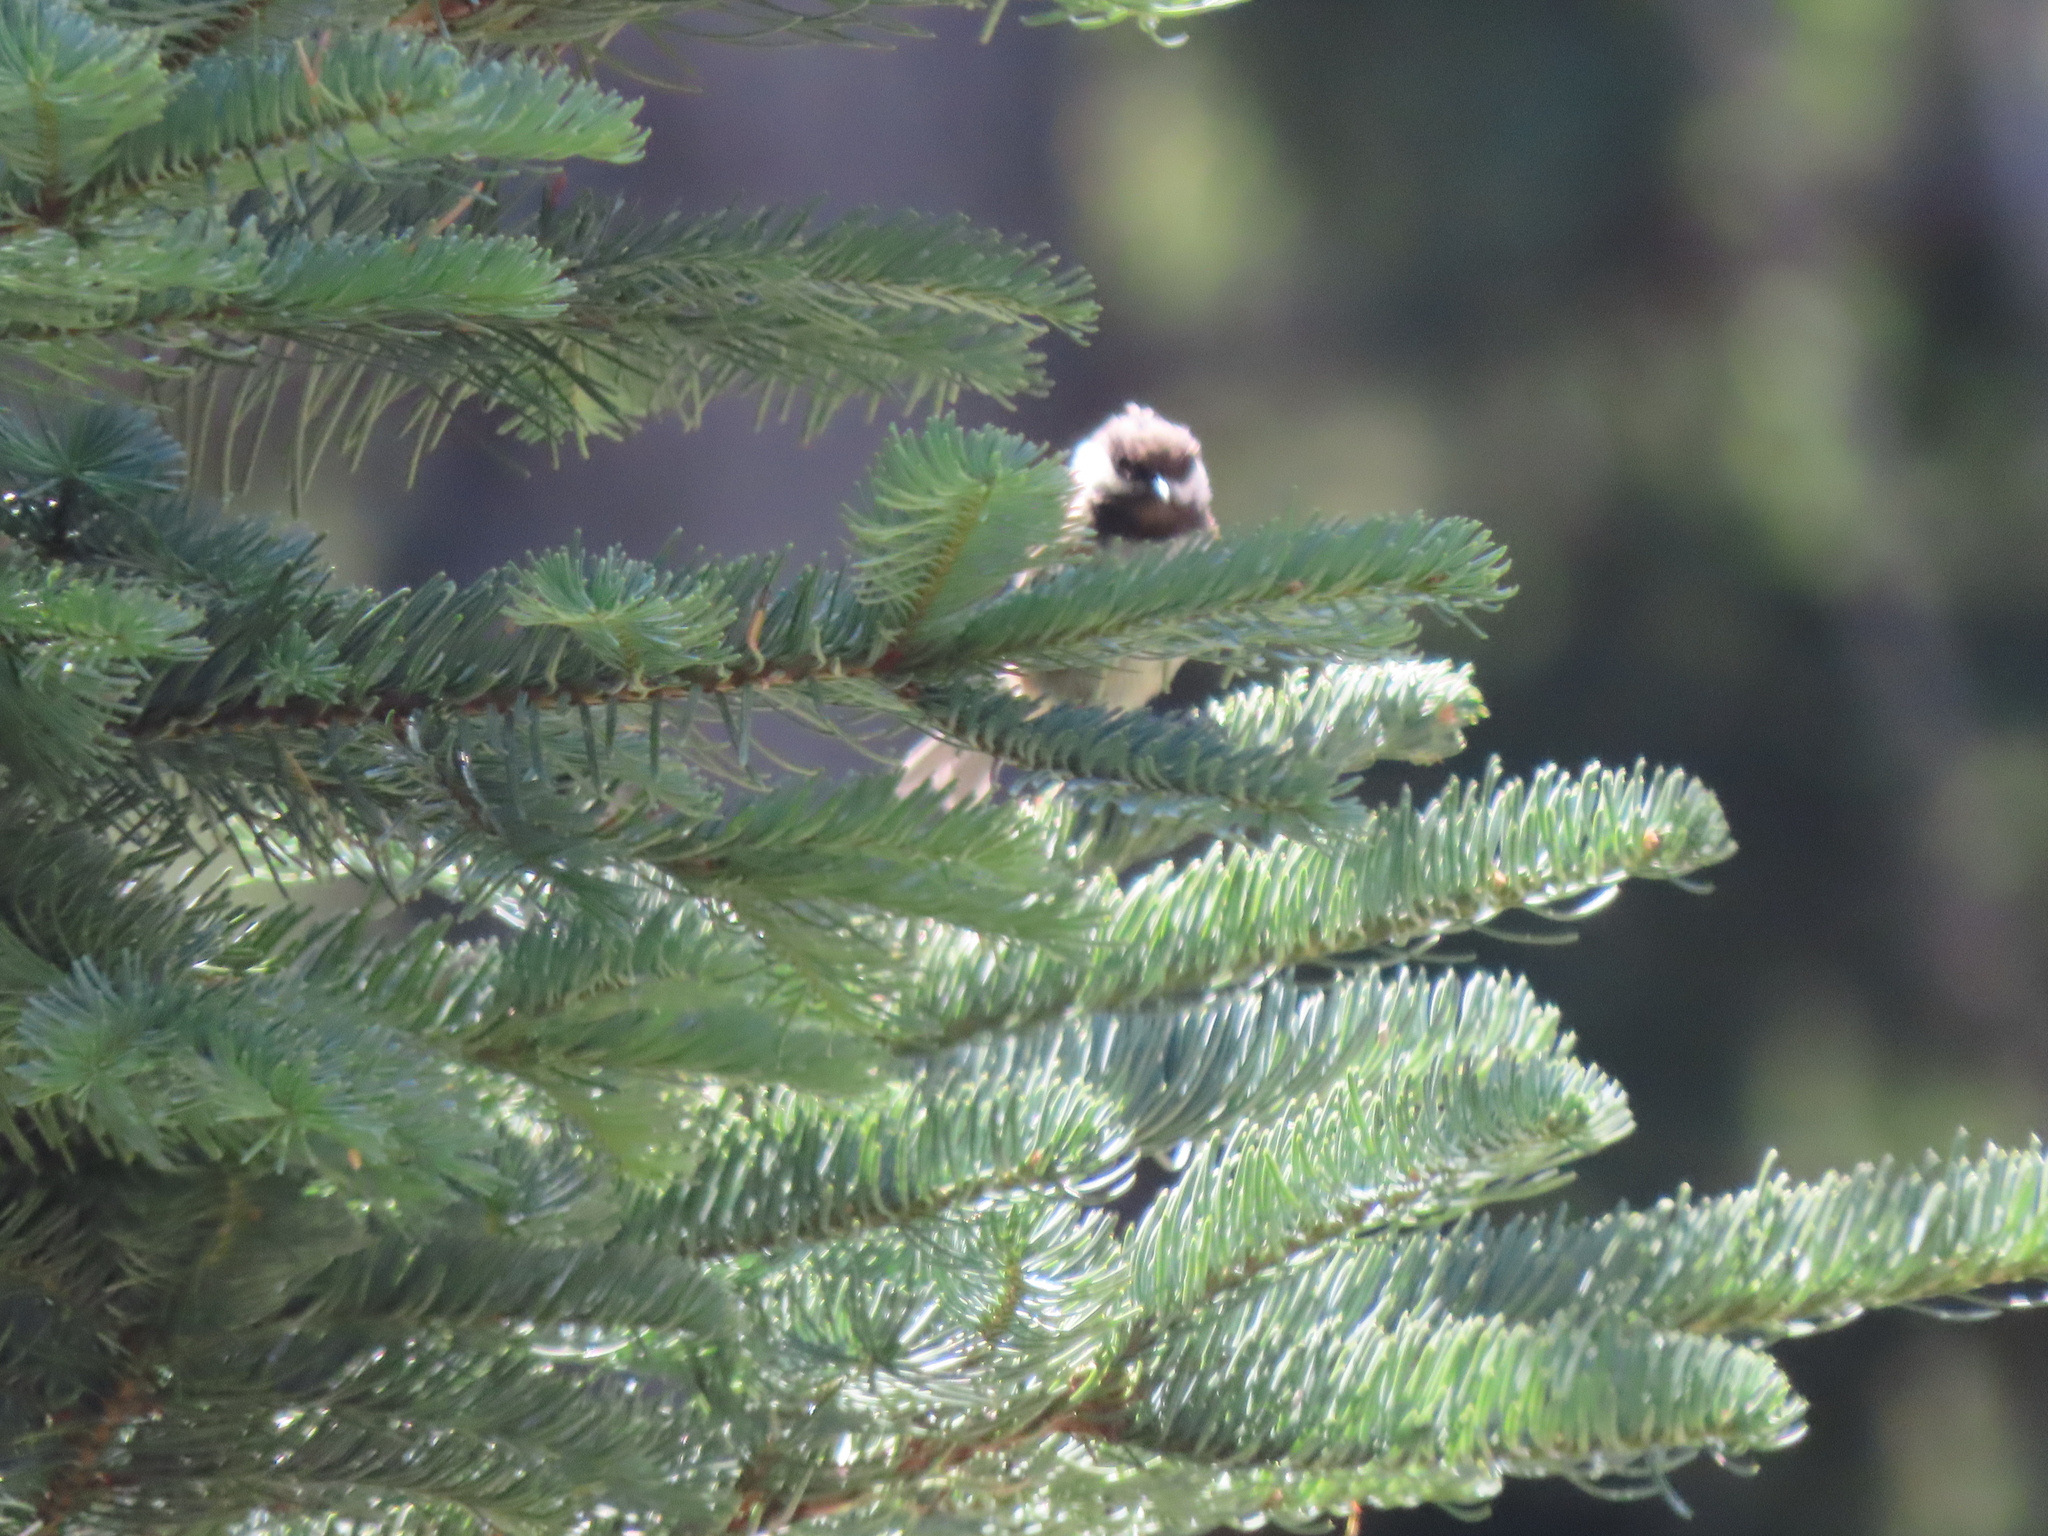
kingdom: Animalia
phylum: Chordata
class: Aves
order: Passeriformes
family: Paridae
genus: Poecile
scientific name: Poecile rufescens
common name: Chestnut-backed chickadee
